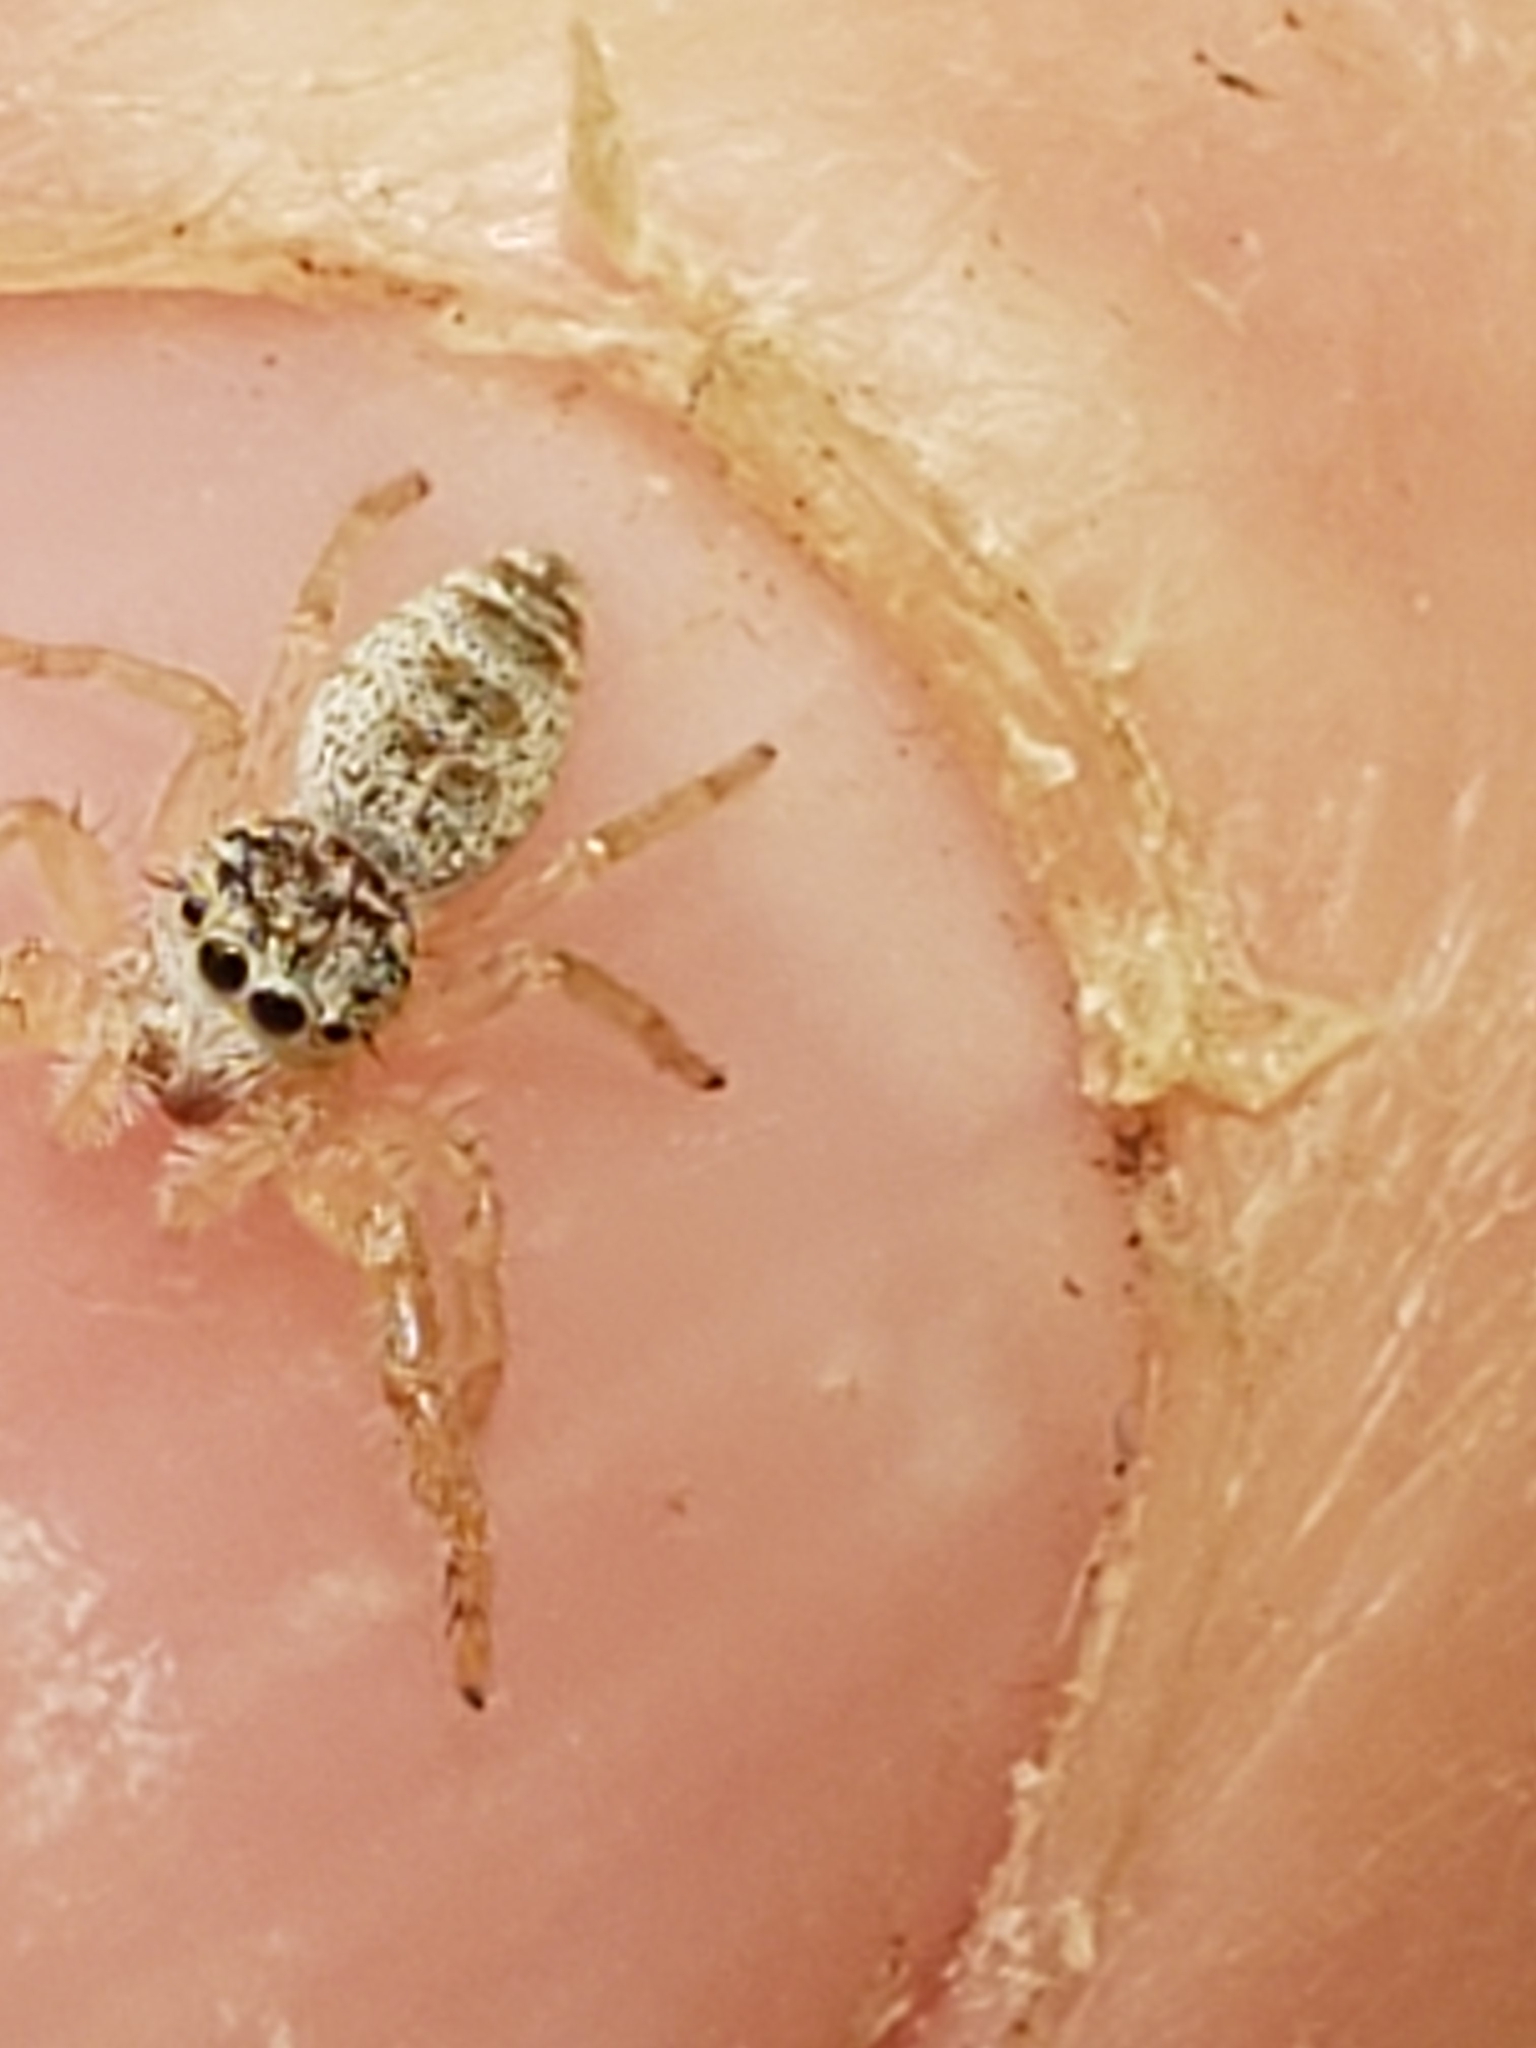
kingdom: Animalia
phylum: Arthropoda
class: Arachnida
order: Araneae
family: Salticidae
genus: Hentzia
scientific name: Hentzia mitrata
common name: White-jawed jumping spider
